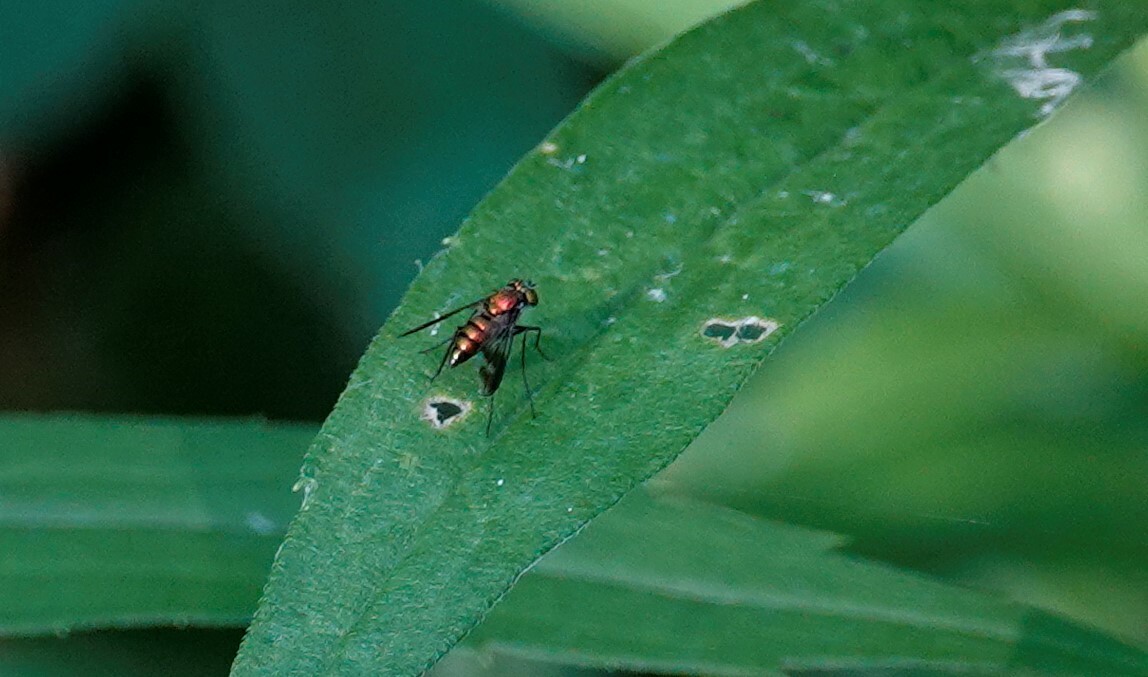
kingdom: Animalia
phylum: Arthropoda
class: Insecta
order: Diptera
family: Dolichopodidae
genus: Condylostylus
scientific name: Condylostylus patibulatus
